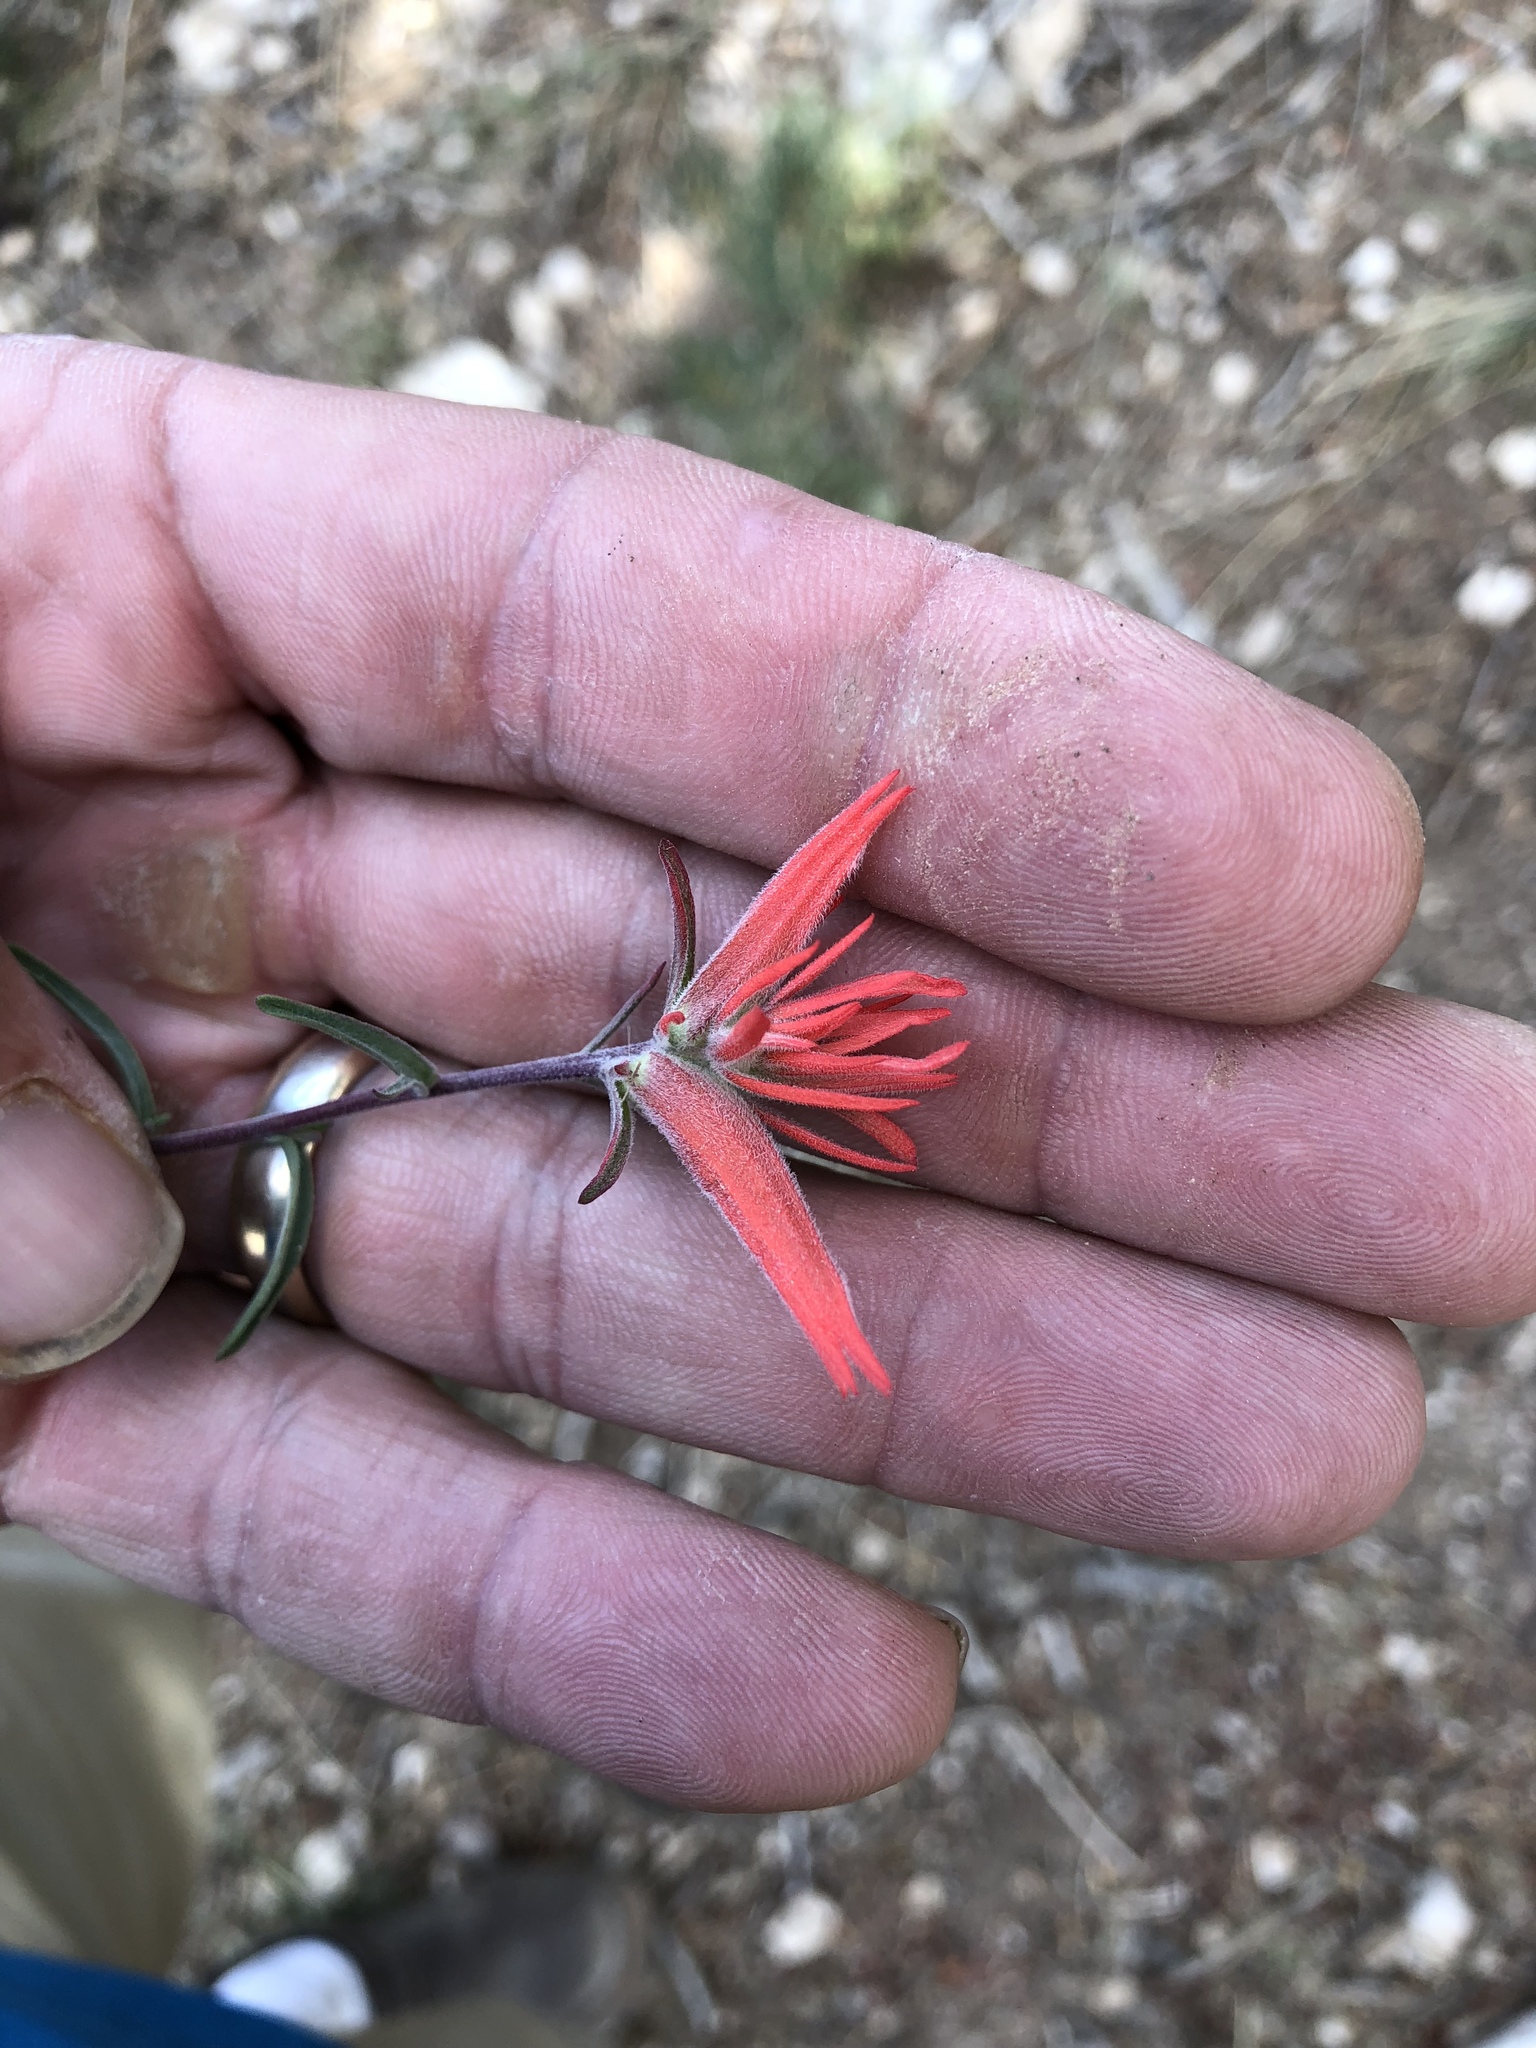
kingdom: Plantae
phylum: Tracheophyta
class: Magnoliopsida
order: Lamiales
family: Orobanchaceae
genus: Castilleja
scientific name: Castilleja linariifolia
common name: Wyoming paintbrush
